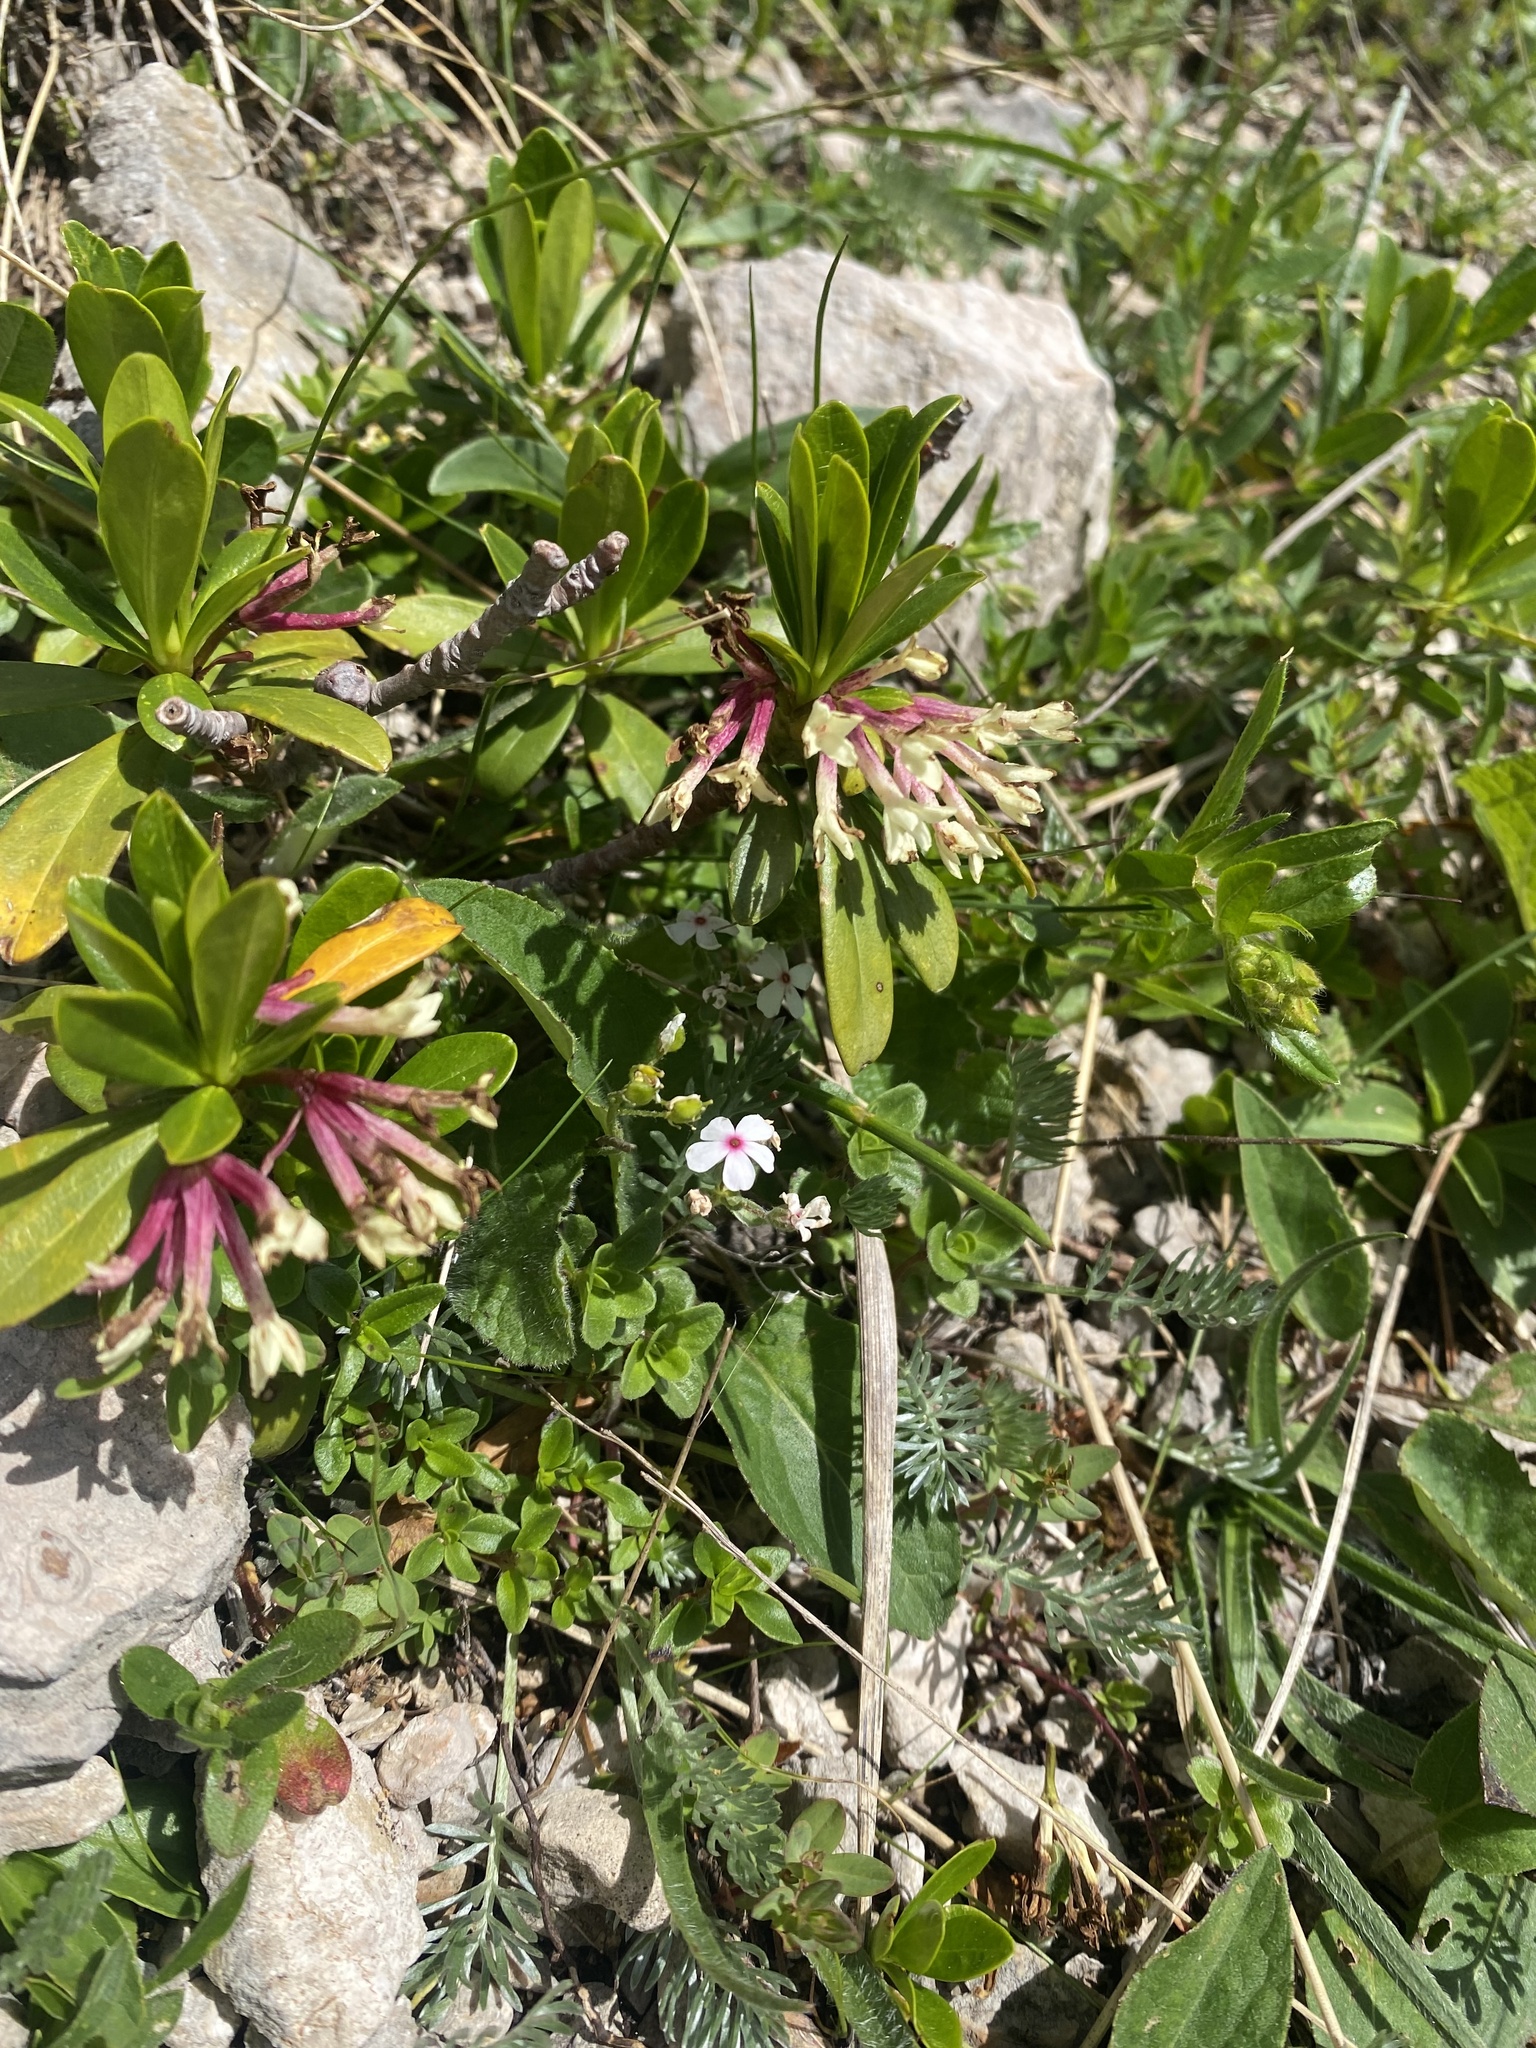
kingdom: Plantae
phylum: Tracheophyta
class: Magnoliopsida
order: Malvales
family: Thymelaeaceae
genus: Daphne
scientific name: Daphne glomerata
